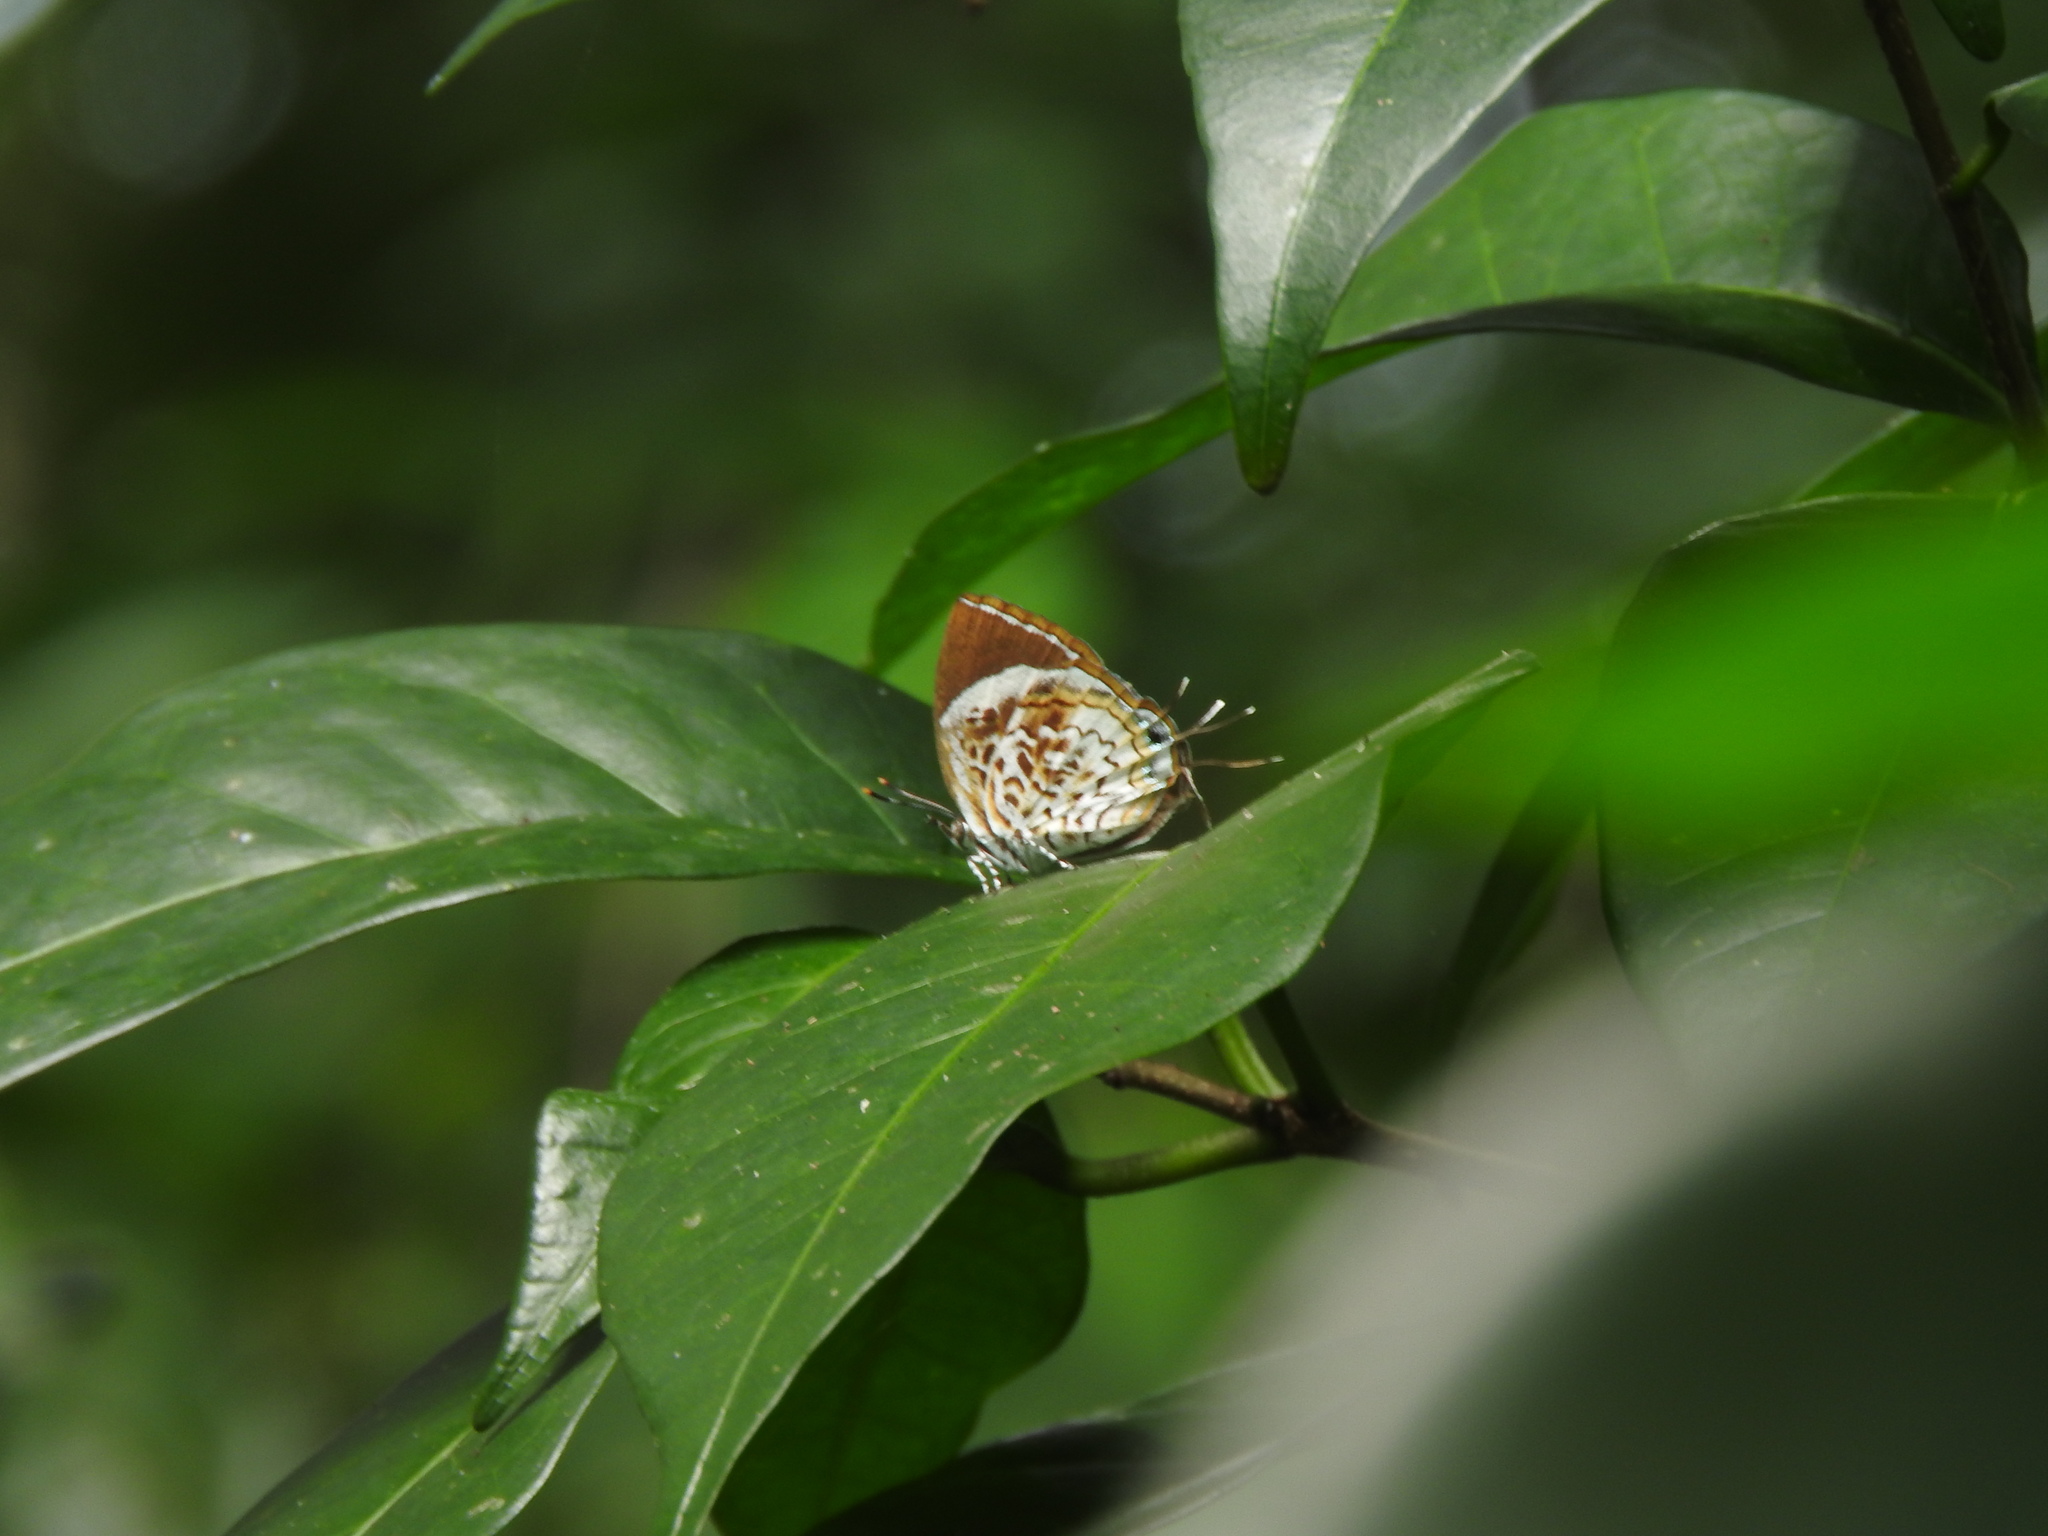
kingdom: Animalia
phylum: Arthropoda
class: Insecta
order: Lepidoptera
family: Lycaenidae
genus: Rathinda
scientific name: Rathinda amor
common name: Monkey puzzle
